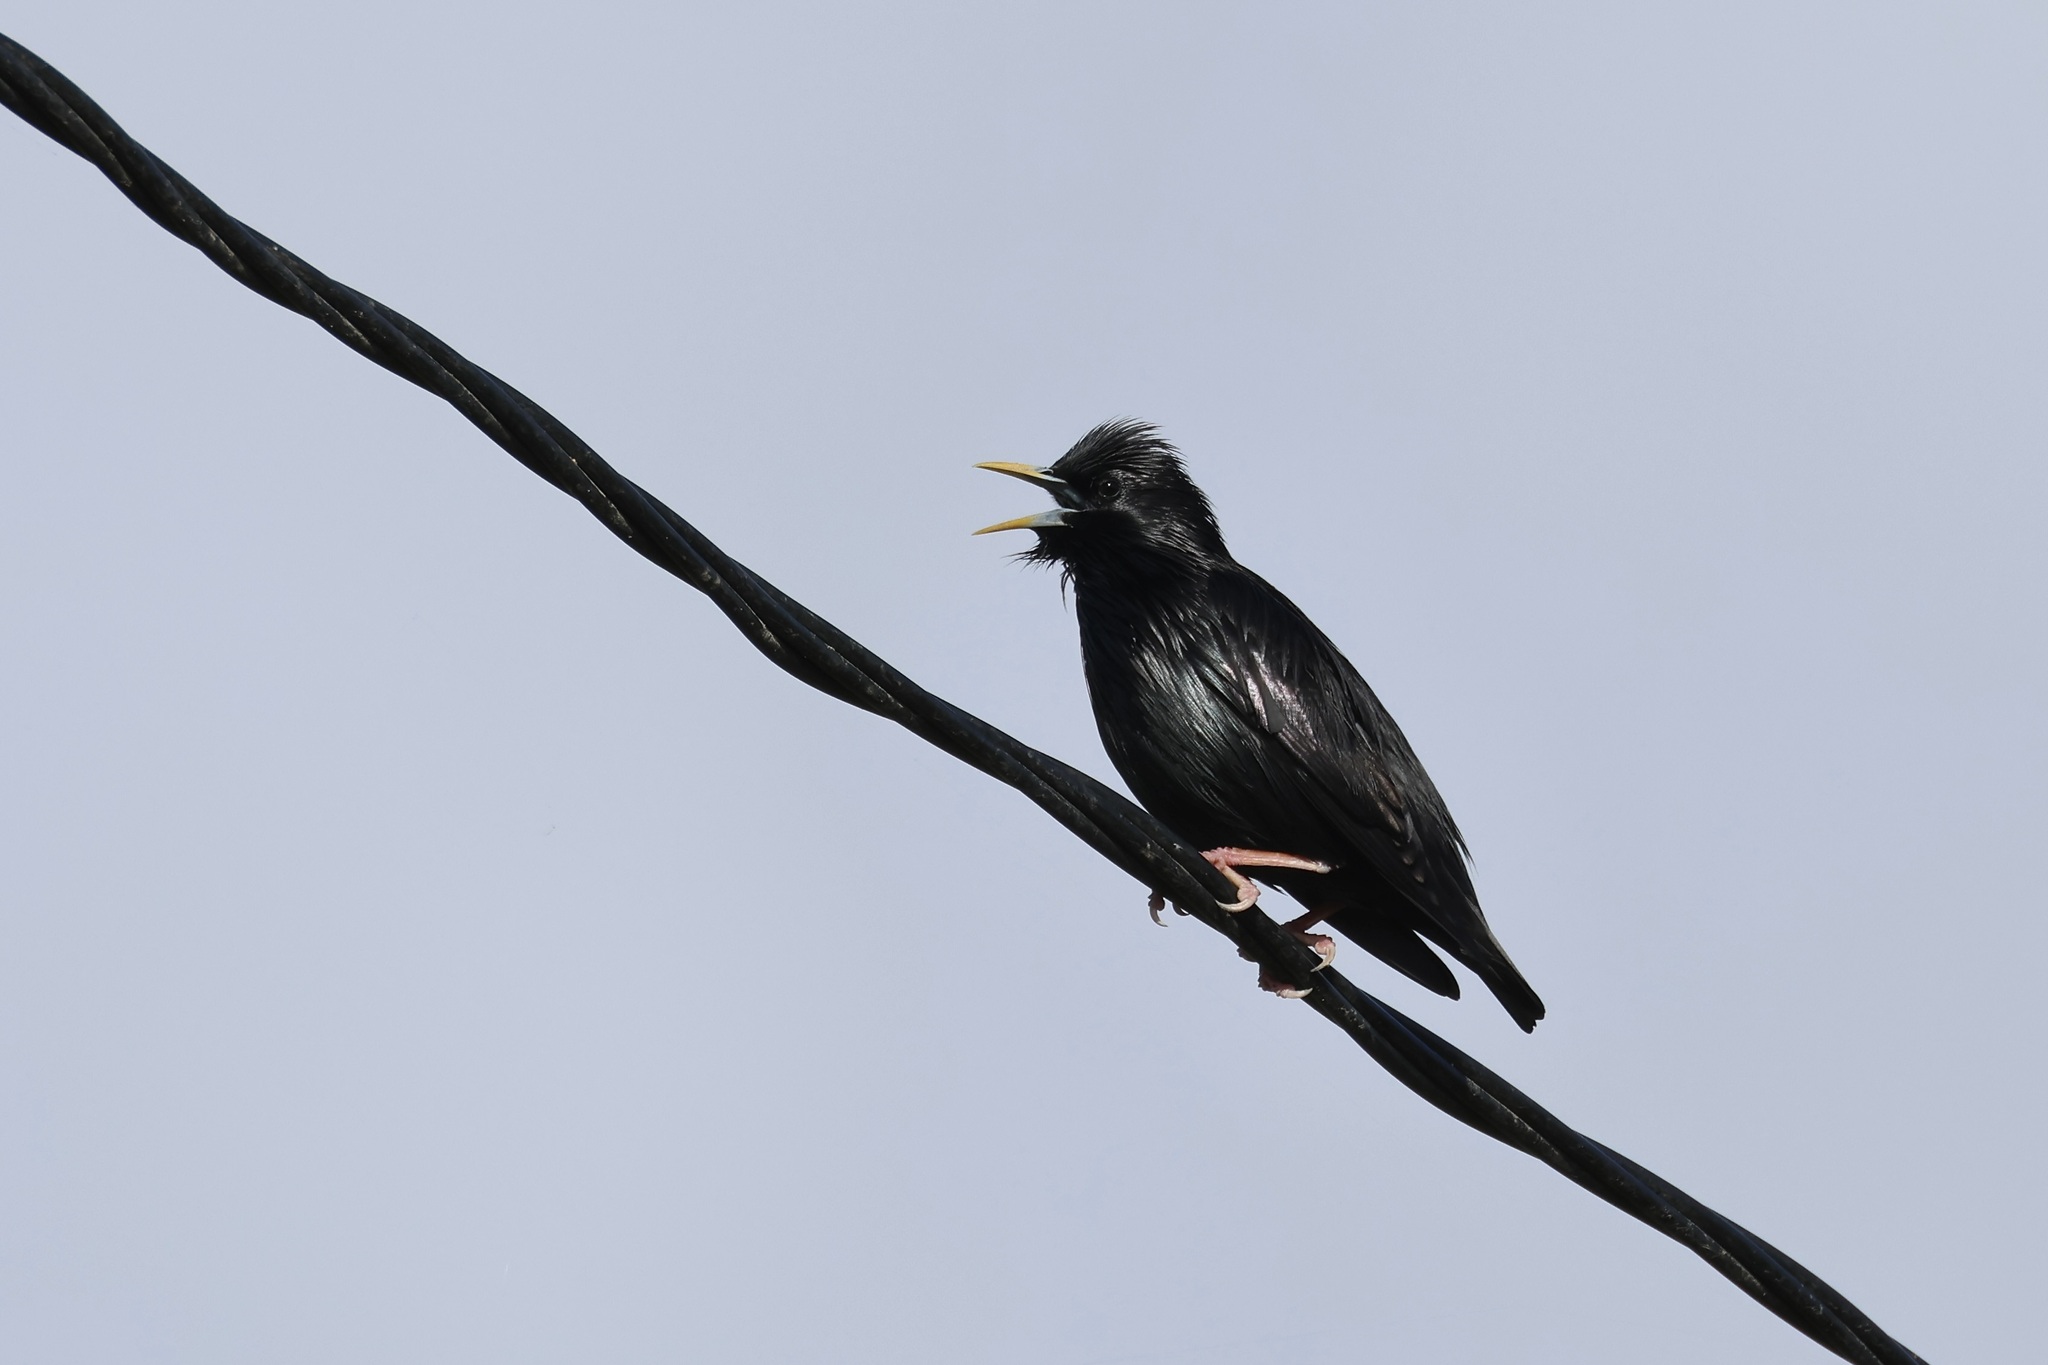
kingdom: Animalia
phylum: Chordata
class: Aves
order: Passeriformes
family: Sturnidae
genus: Sturnus
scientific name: Sturnus unicolor
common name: Spotless starling
